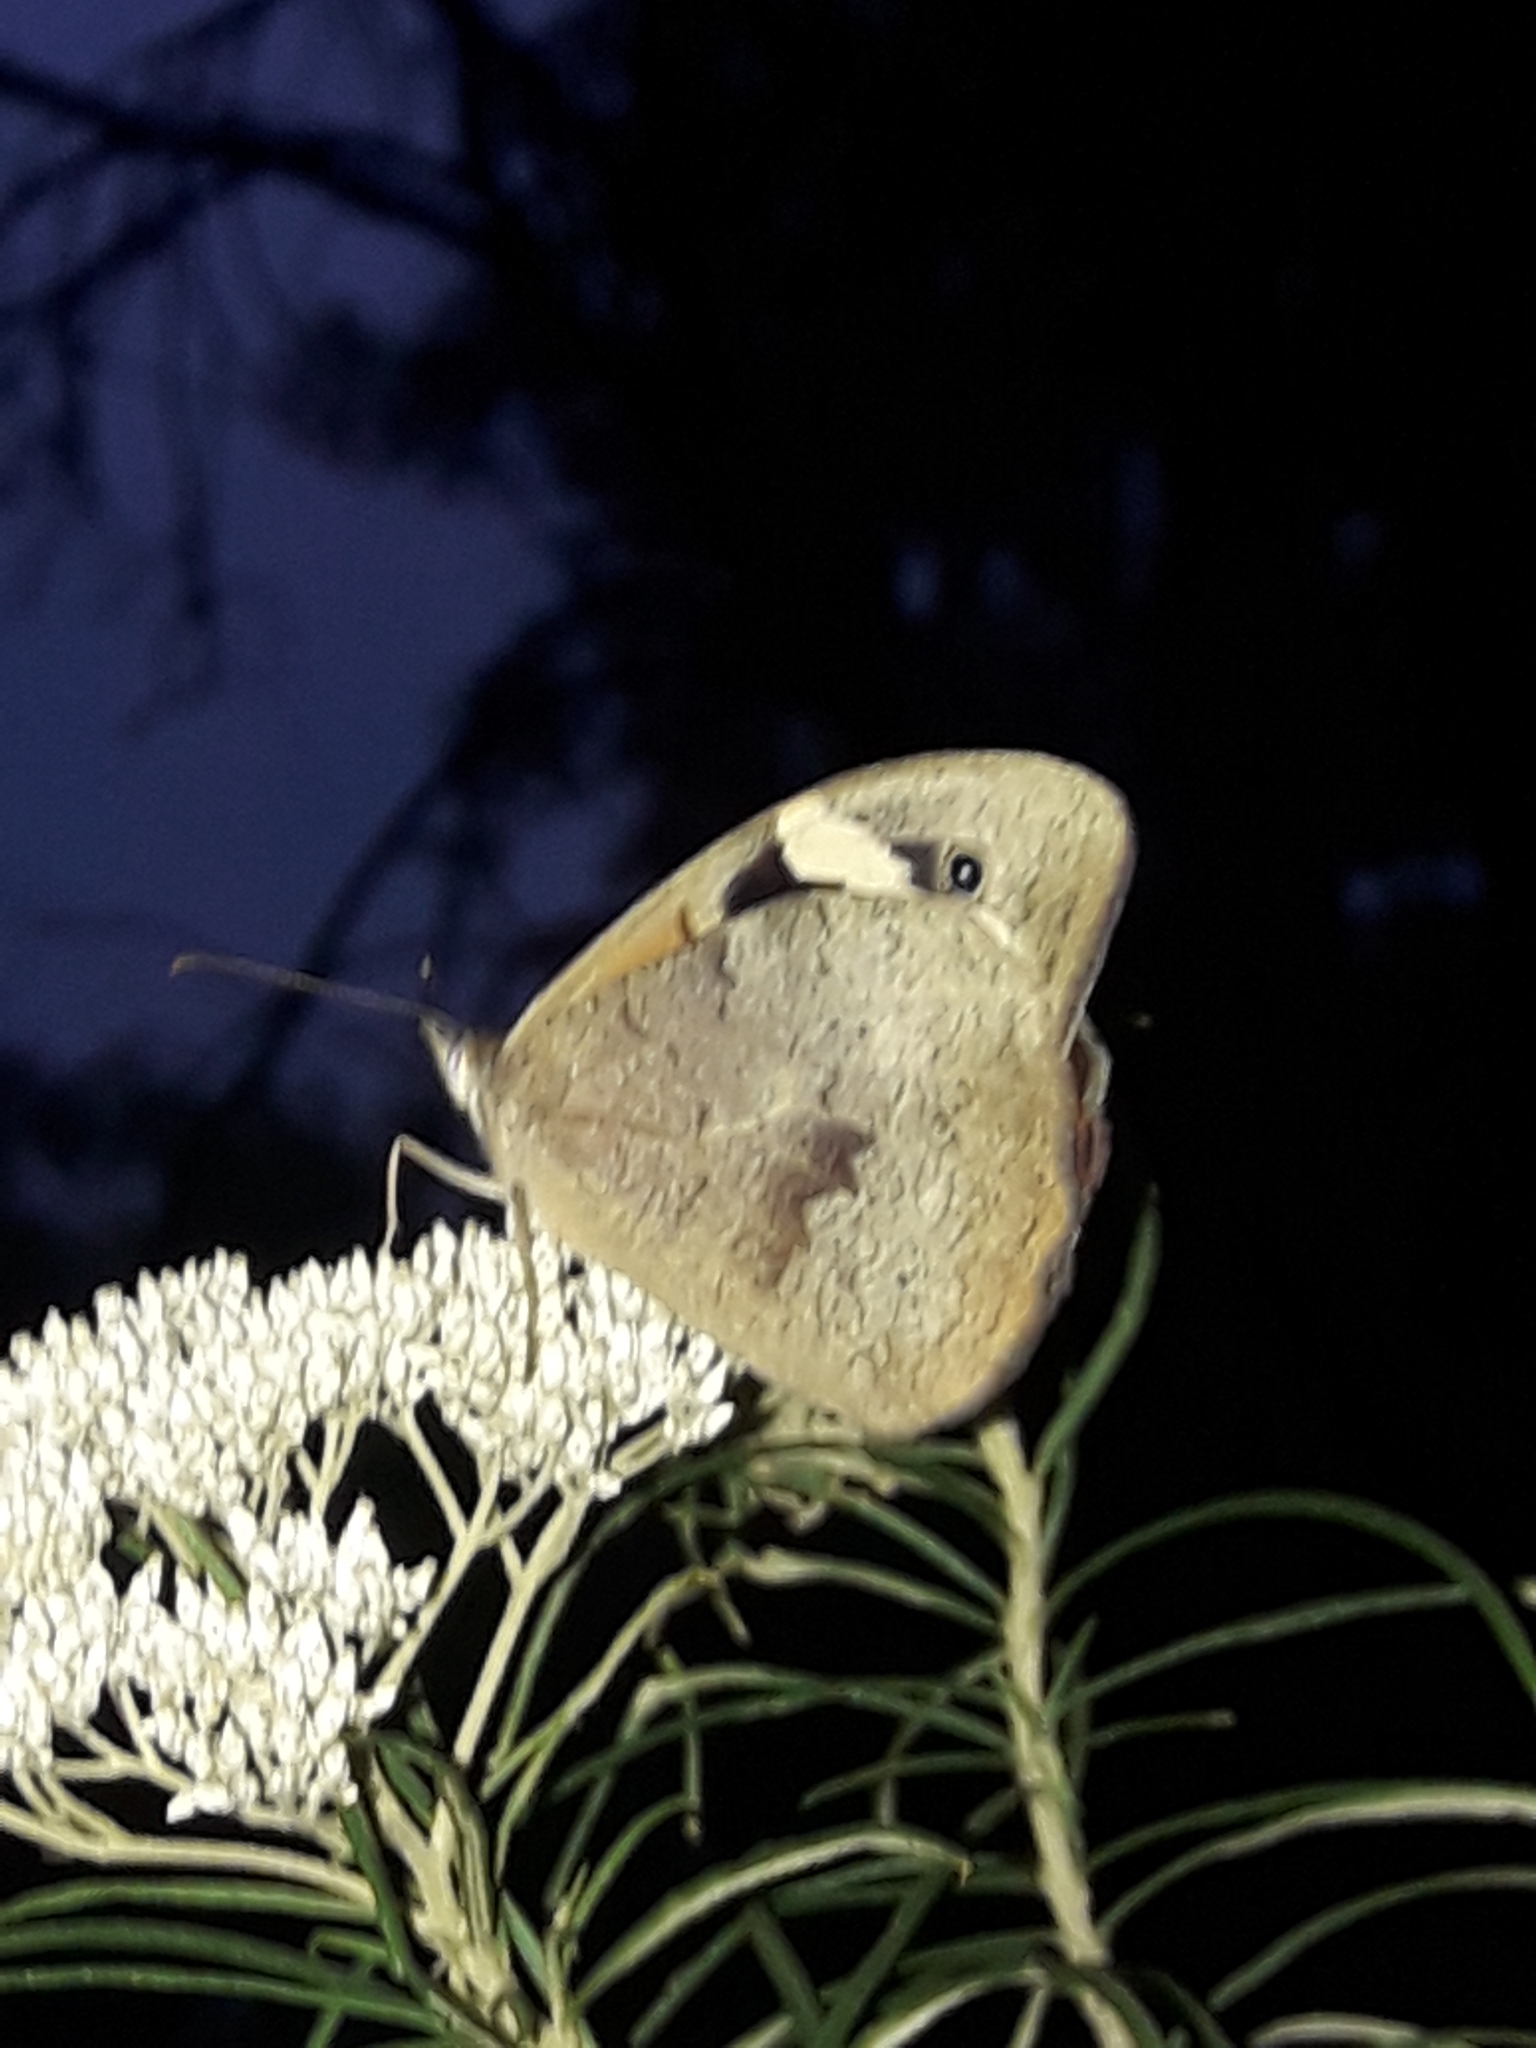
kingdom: Animalia
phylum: Arthropoda
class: Insecta
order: Lepidoptera
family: Nymphalidae
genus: Heteronympha
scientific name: Heteronympha merope
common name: Common brown
